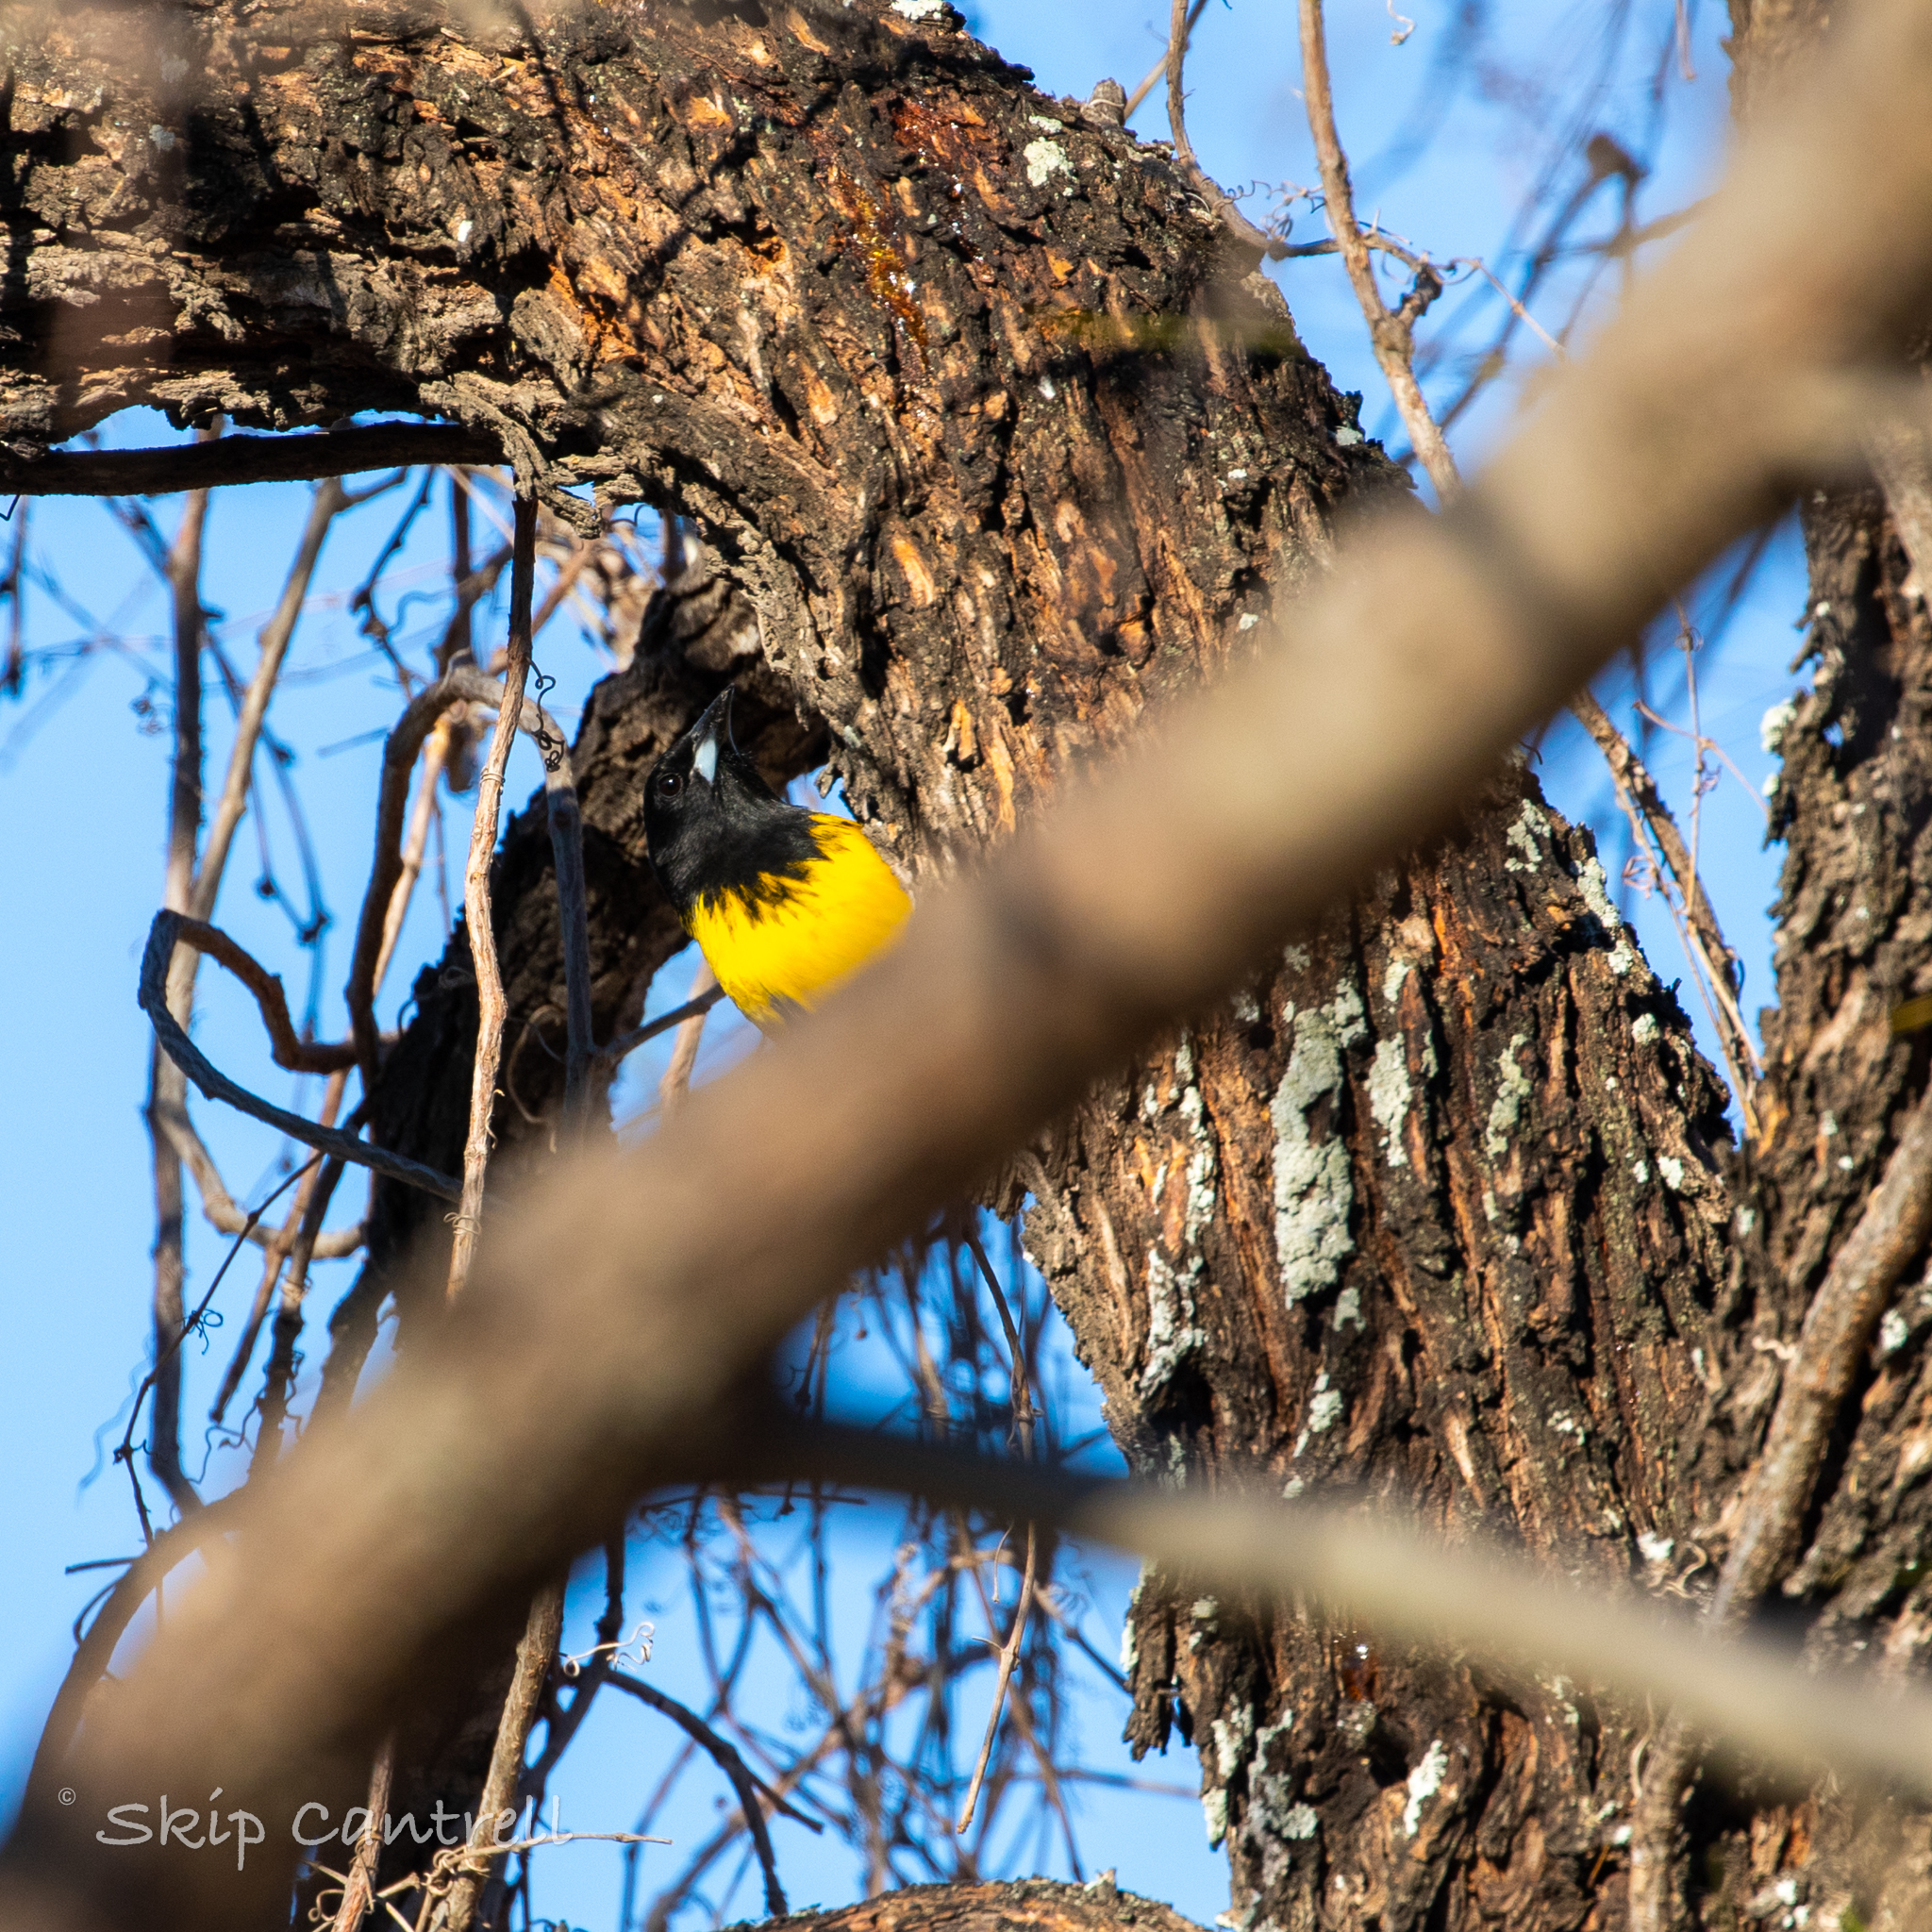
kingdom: Animalia
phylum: Chordata
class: Aves
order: Passeriformes
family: Icteridae
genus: Icterus
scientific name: Icterus graduacauda
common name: Audubon's oriole
